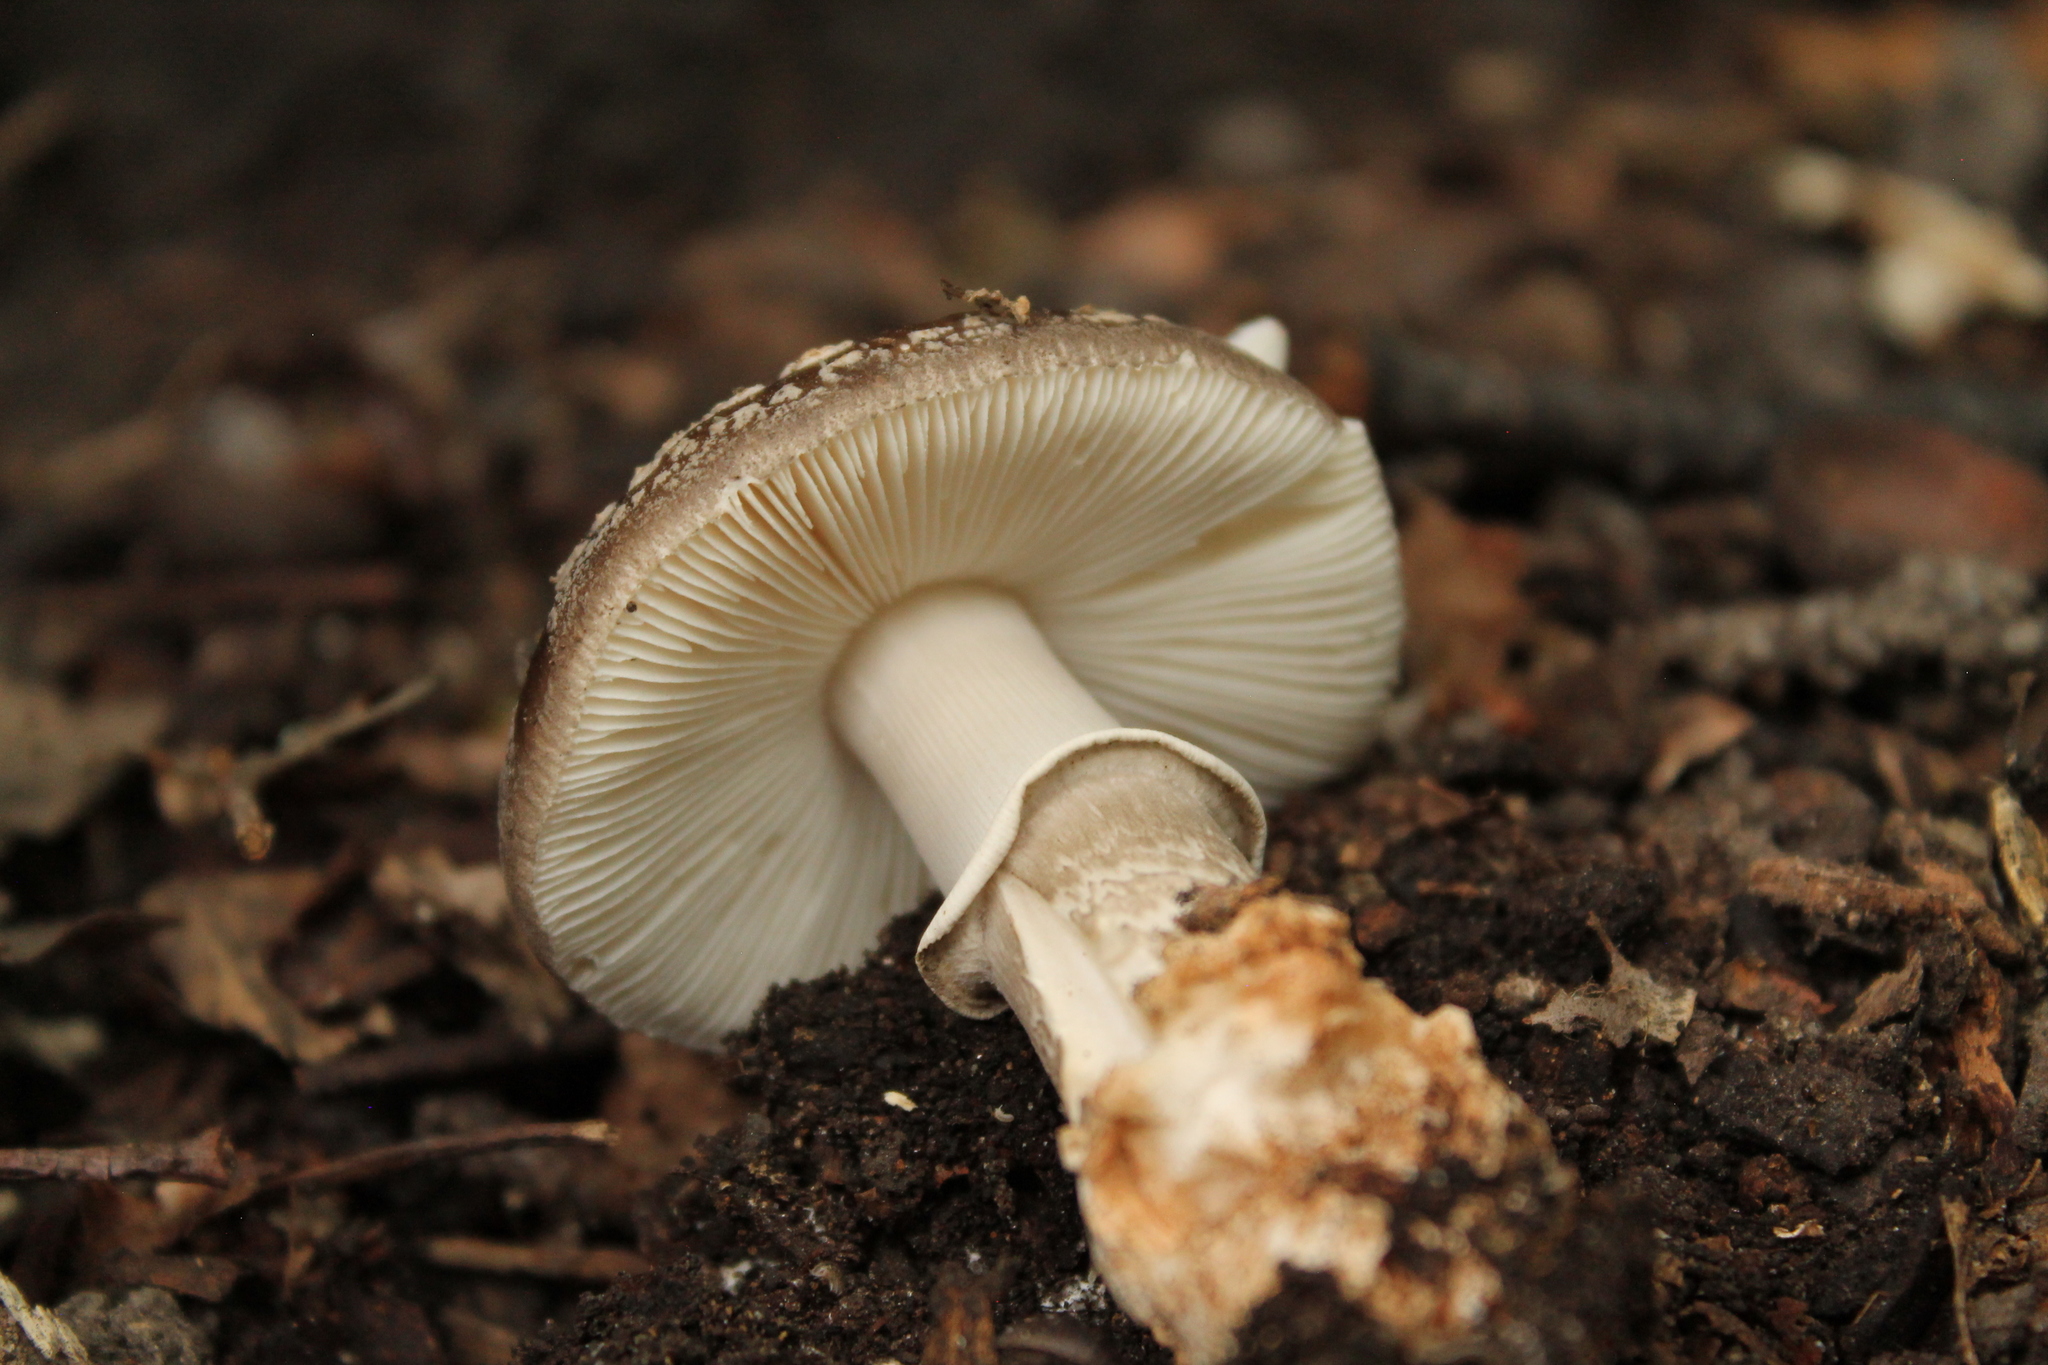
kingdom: Fungi
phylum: Basidiomycota
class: Agaricomycetes
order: Agaricales
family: Amanitaceae
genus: Amanita
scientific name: Amanita excelsa
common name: European false blusher
